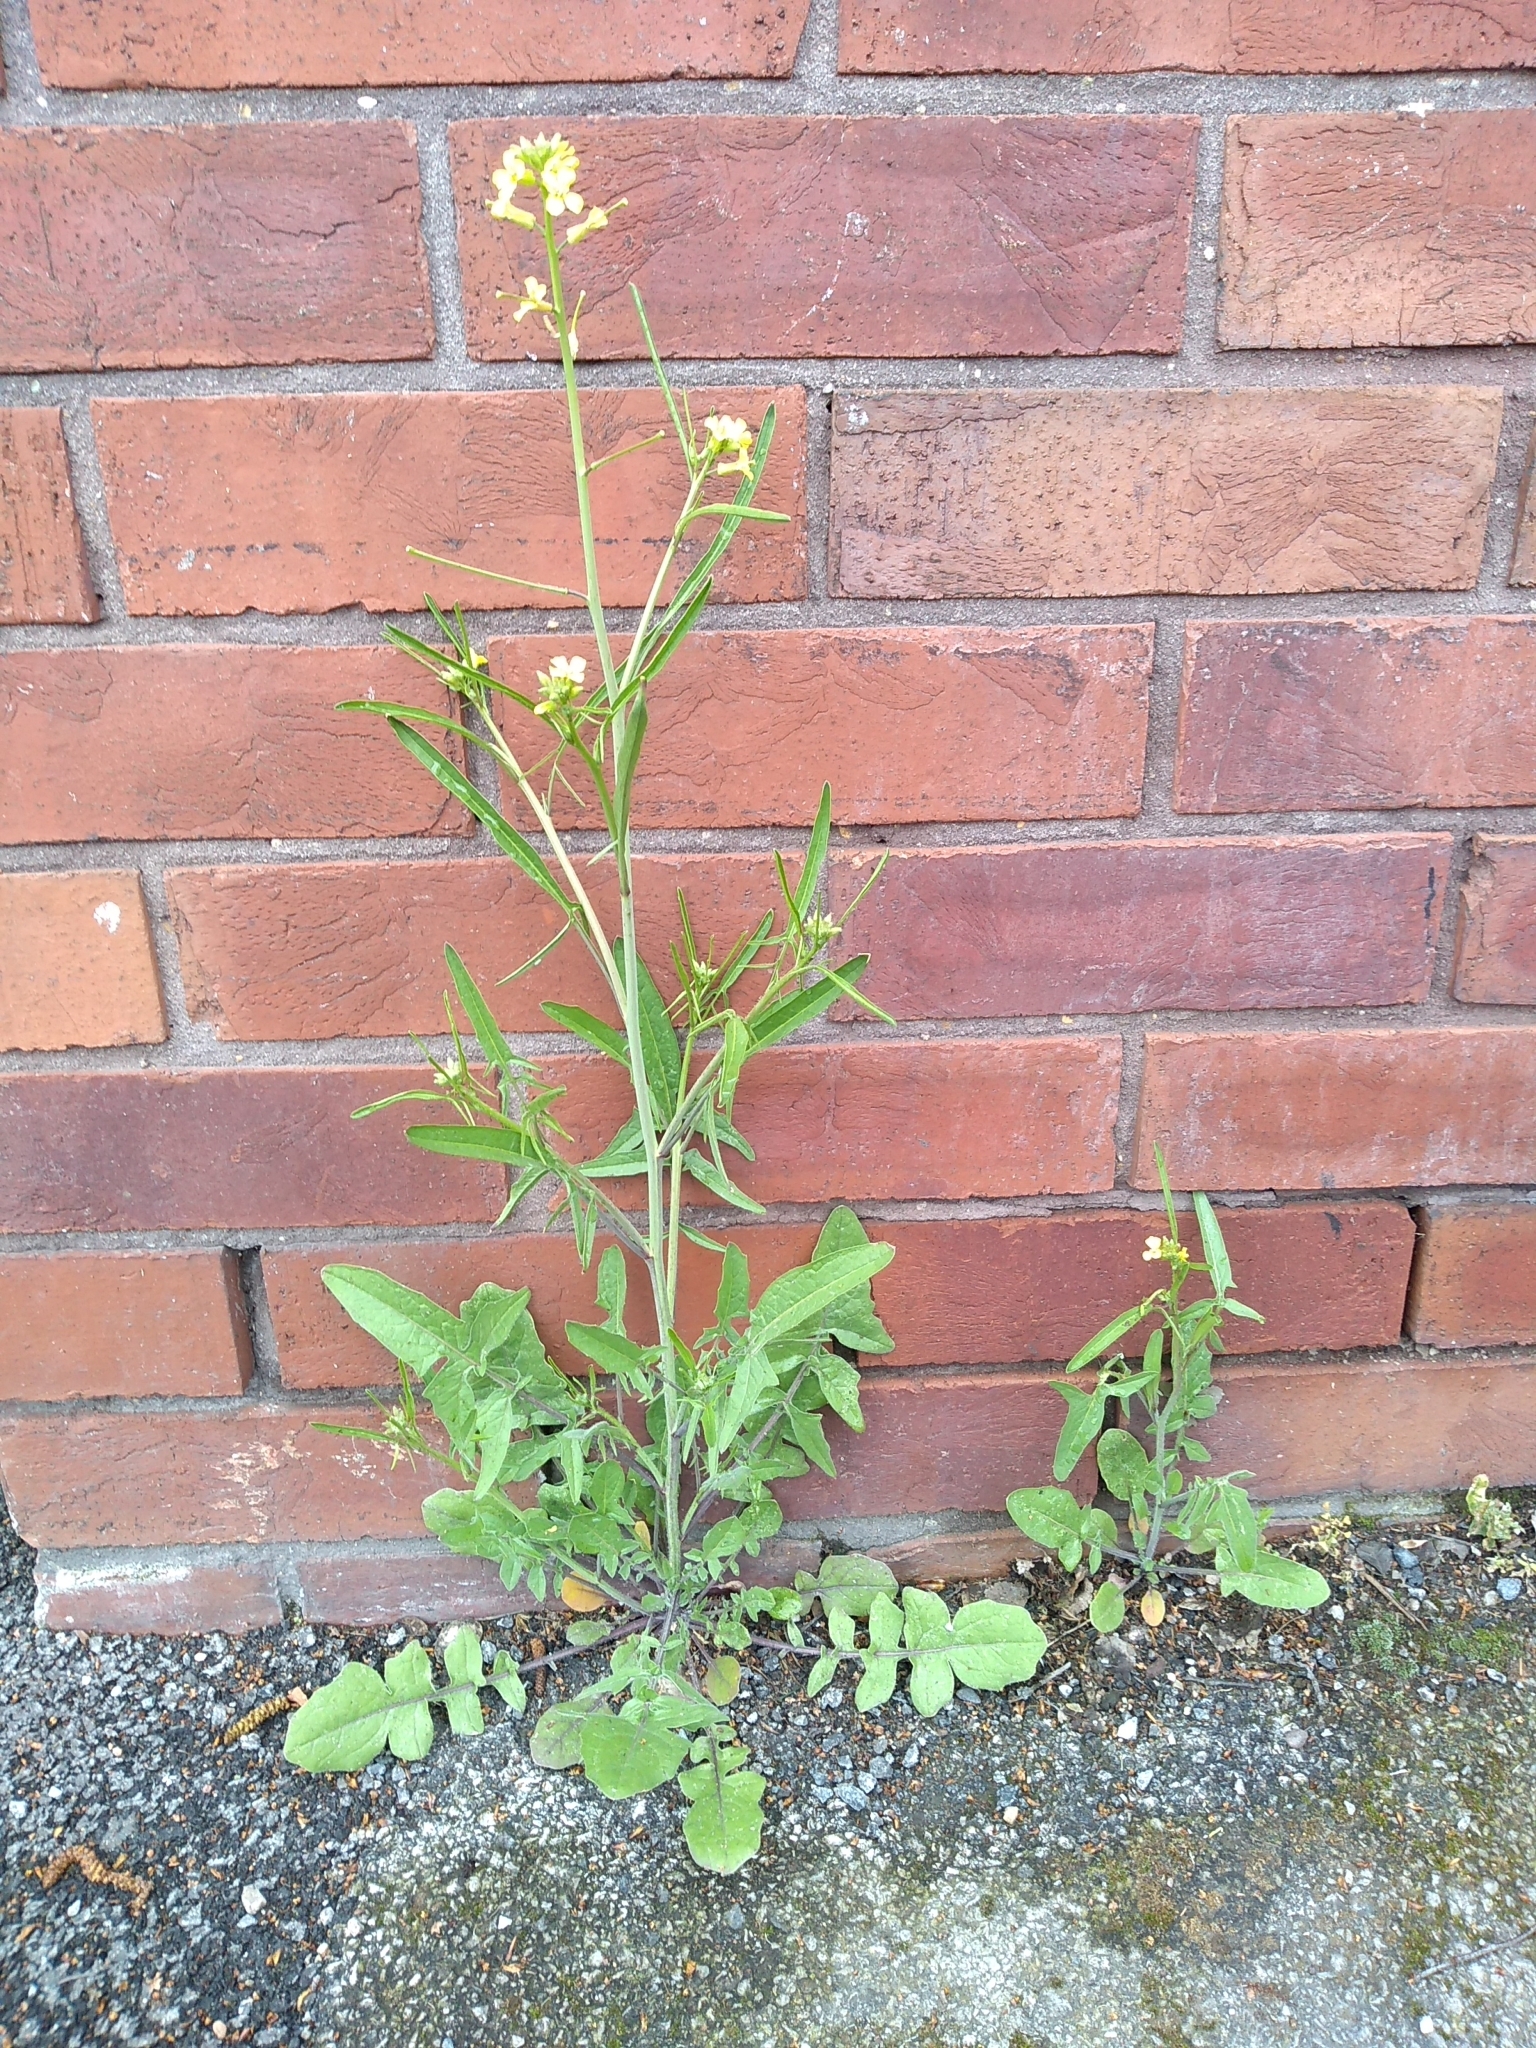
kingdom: Plantae
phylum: Tracheophyta
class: Magnoliopsida
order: Brassicales
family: Brassicaceae
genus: Sisymbrium
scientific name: Sisymbrium orientale
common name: Eastern rocket
